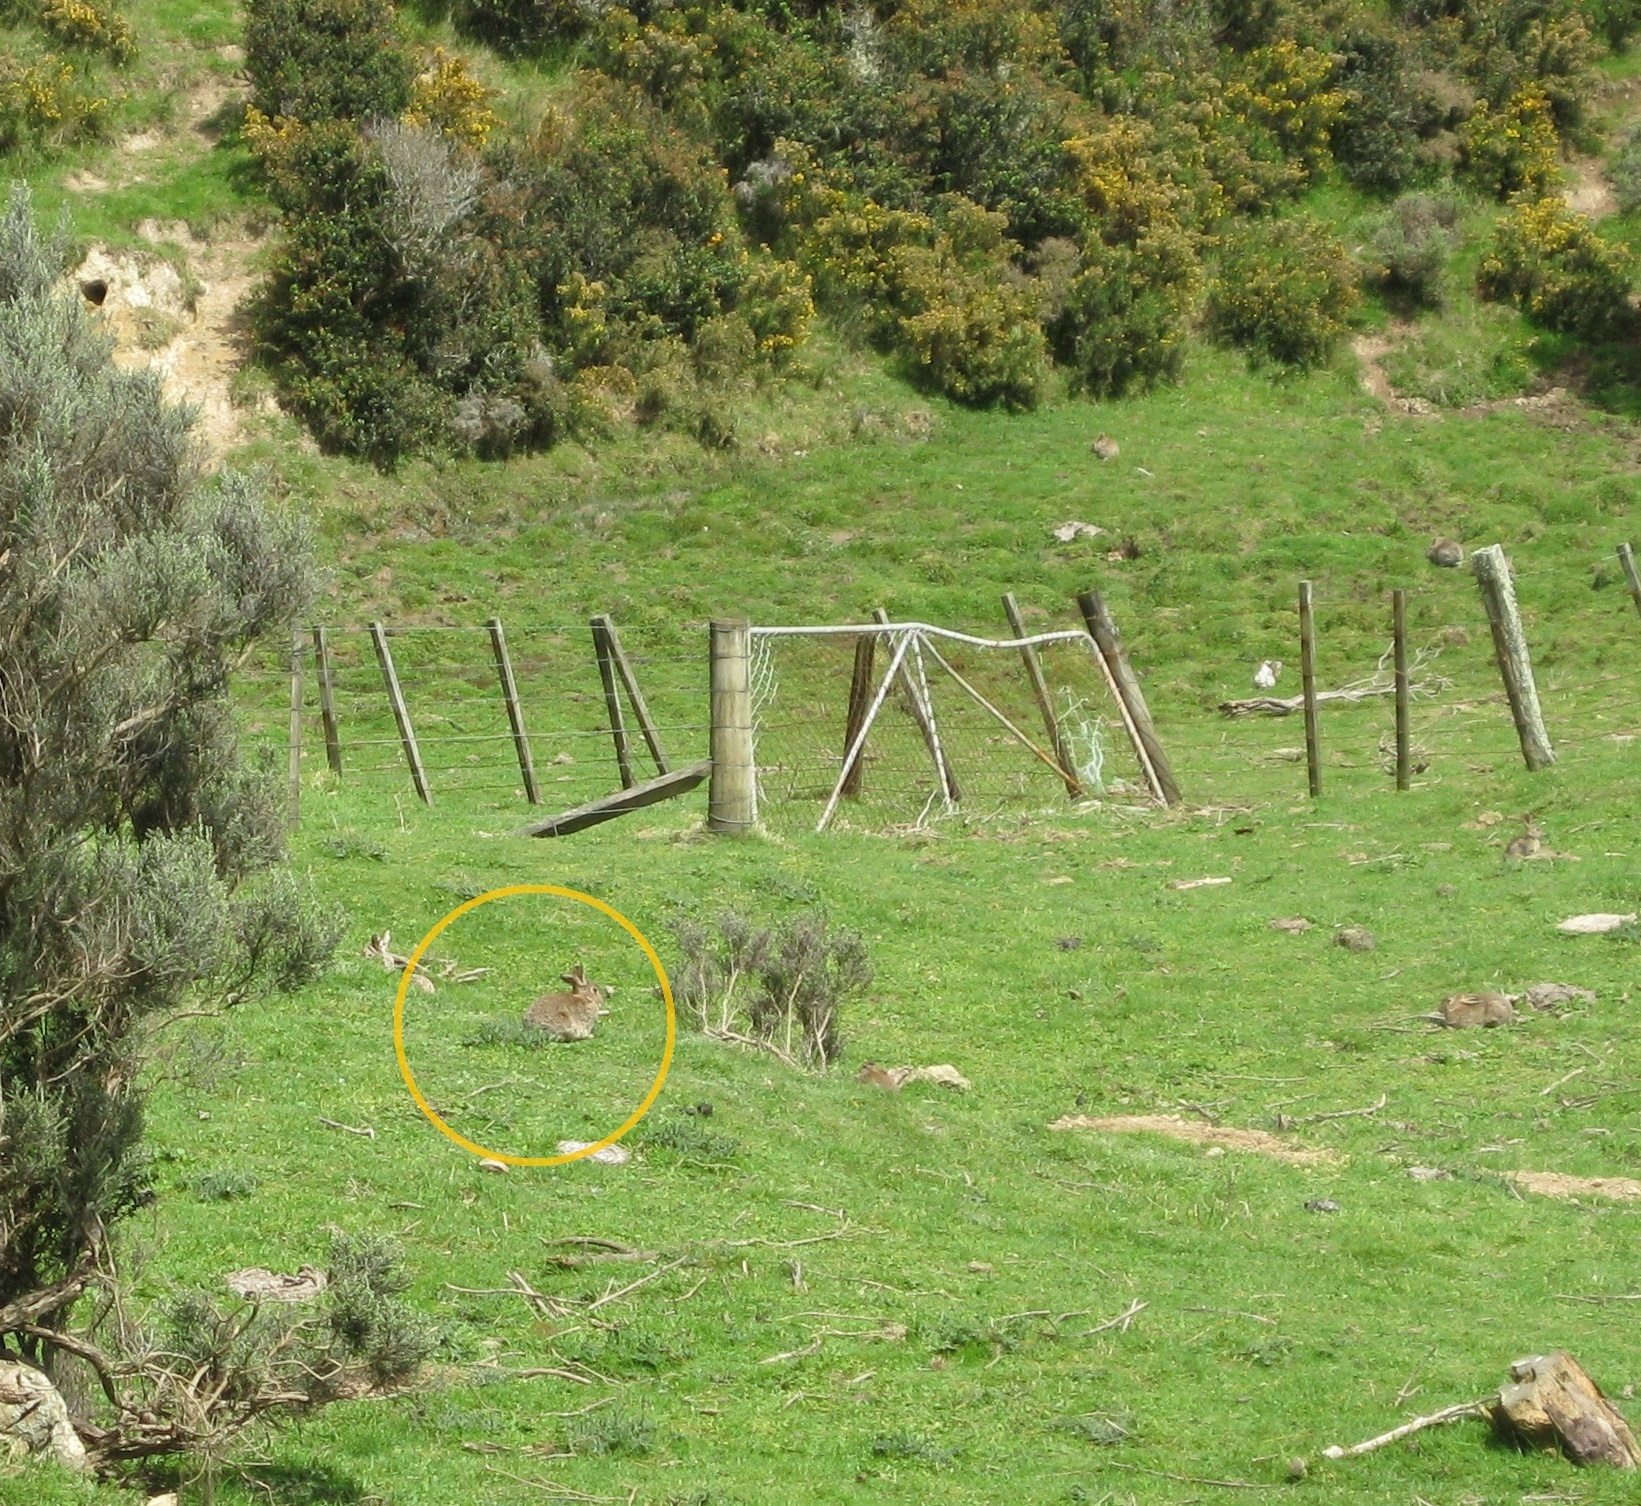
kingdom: Animalia
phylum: Chordata
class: Mammalia
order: Lagomorpha
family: Leporidae
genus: Oryctolagus
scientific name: Oryctolagus cuniculus
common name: European rabbit
